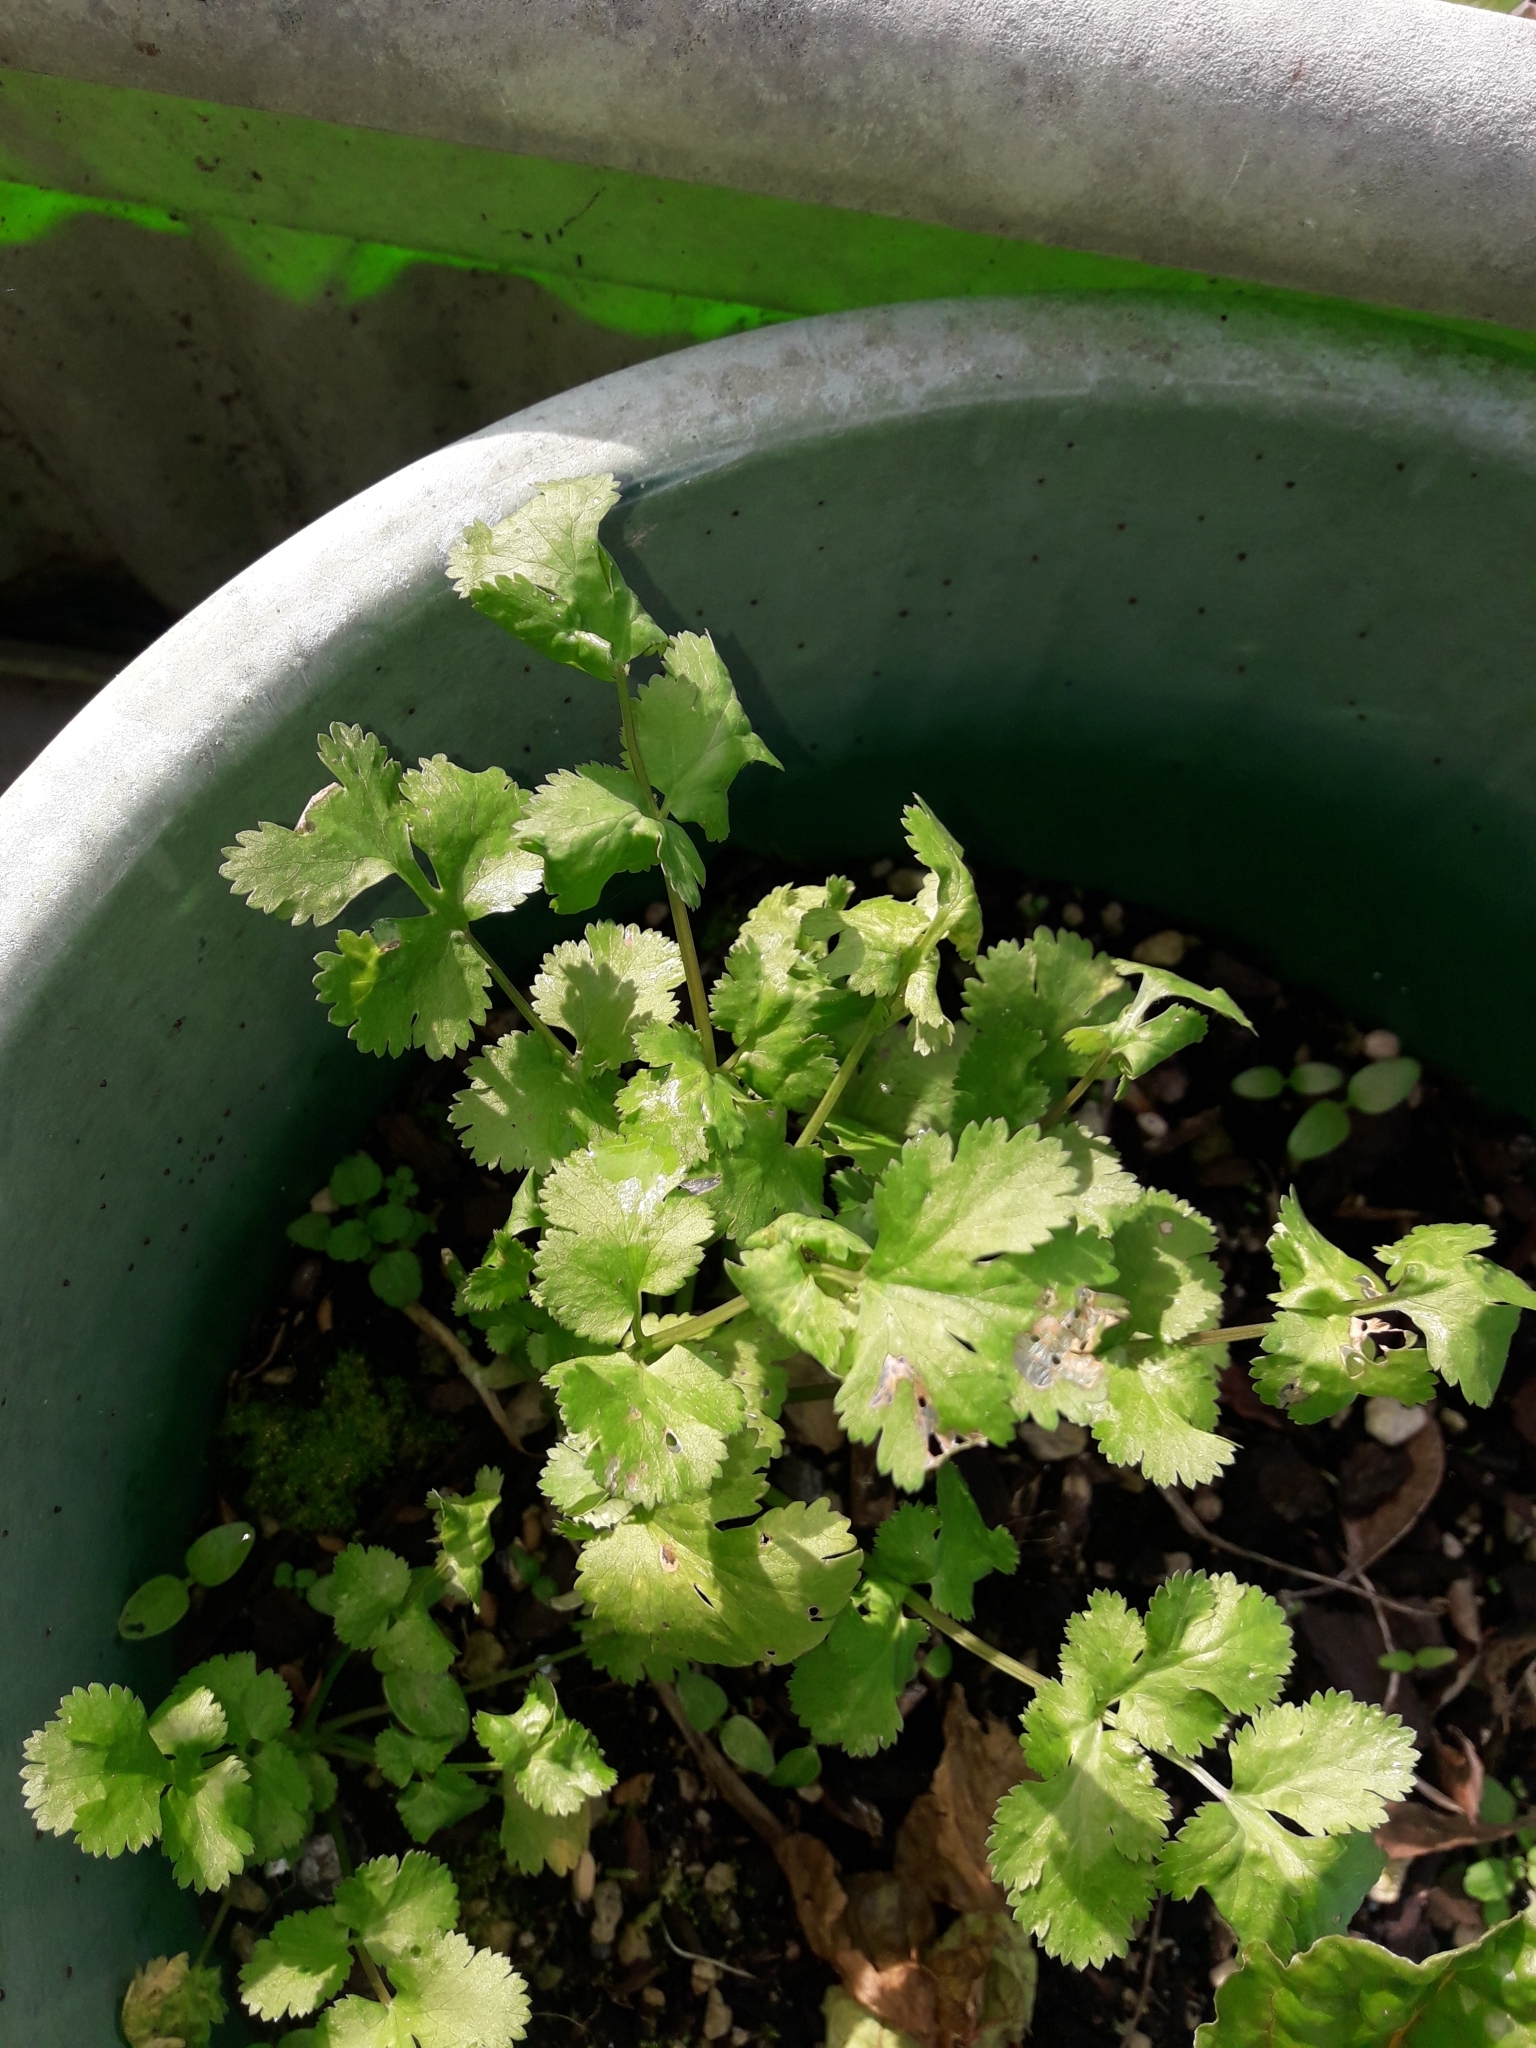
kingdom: Plantae
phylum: Tracheophyta
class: Magnoliopsida
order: Apiales
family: Apiaceae
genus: Coriandrum
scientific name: Coriandrum sativum
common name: Coriander
